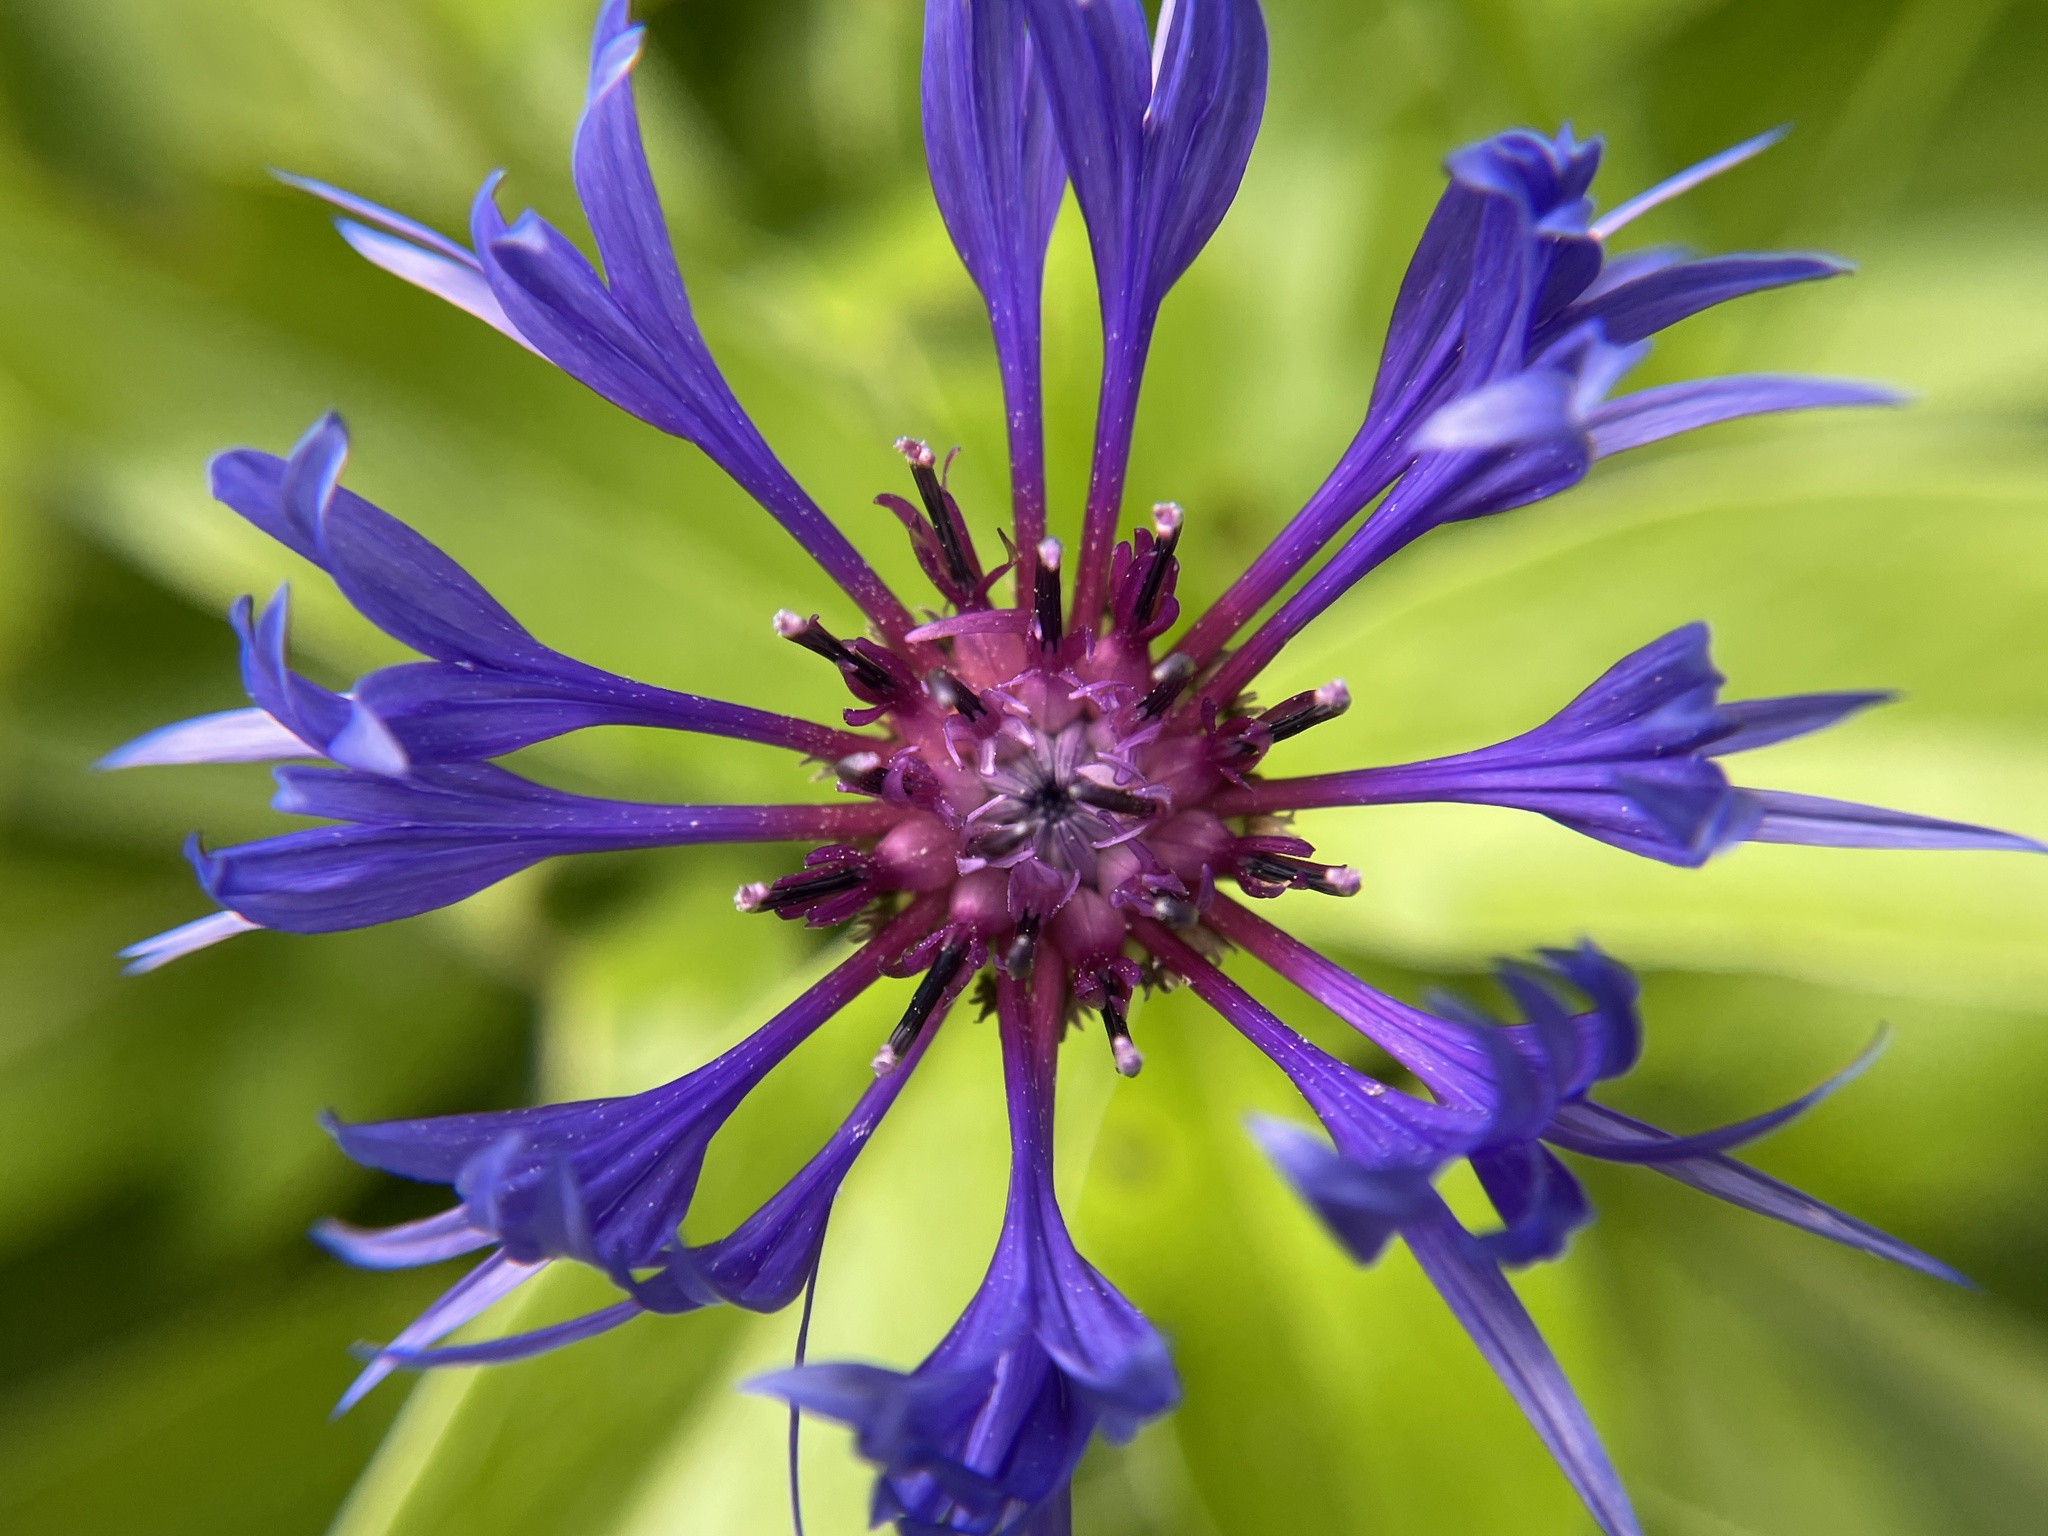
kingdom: Plantae
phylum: Tracheophyta
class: Magnoliopsida
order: Asterales
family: Asteraceae
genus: Centaurea
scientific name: Centaurea montana
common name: Perennial cornflower
